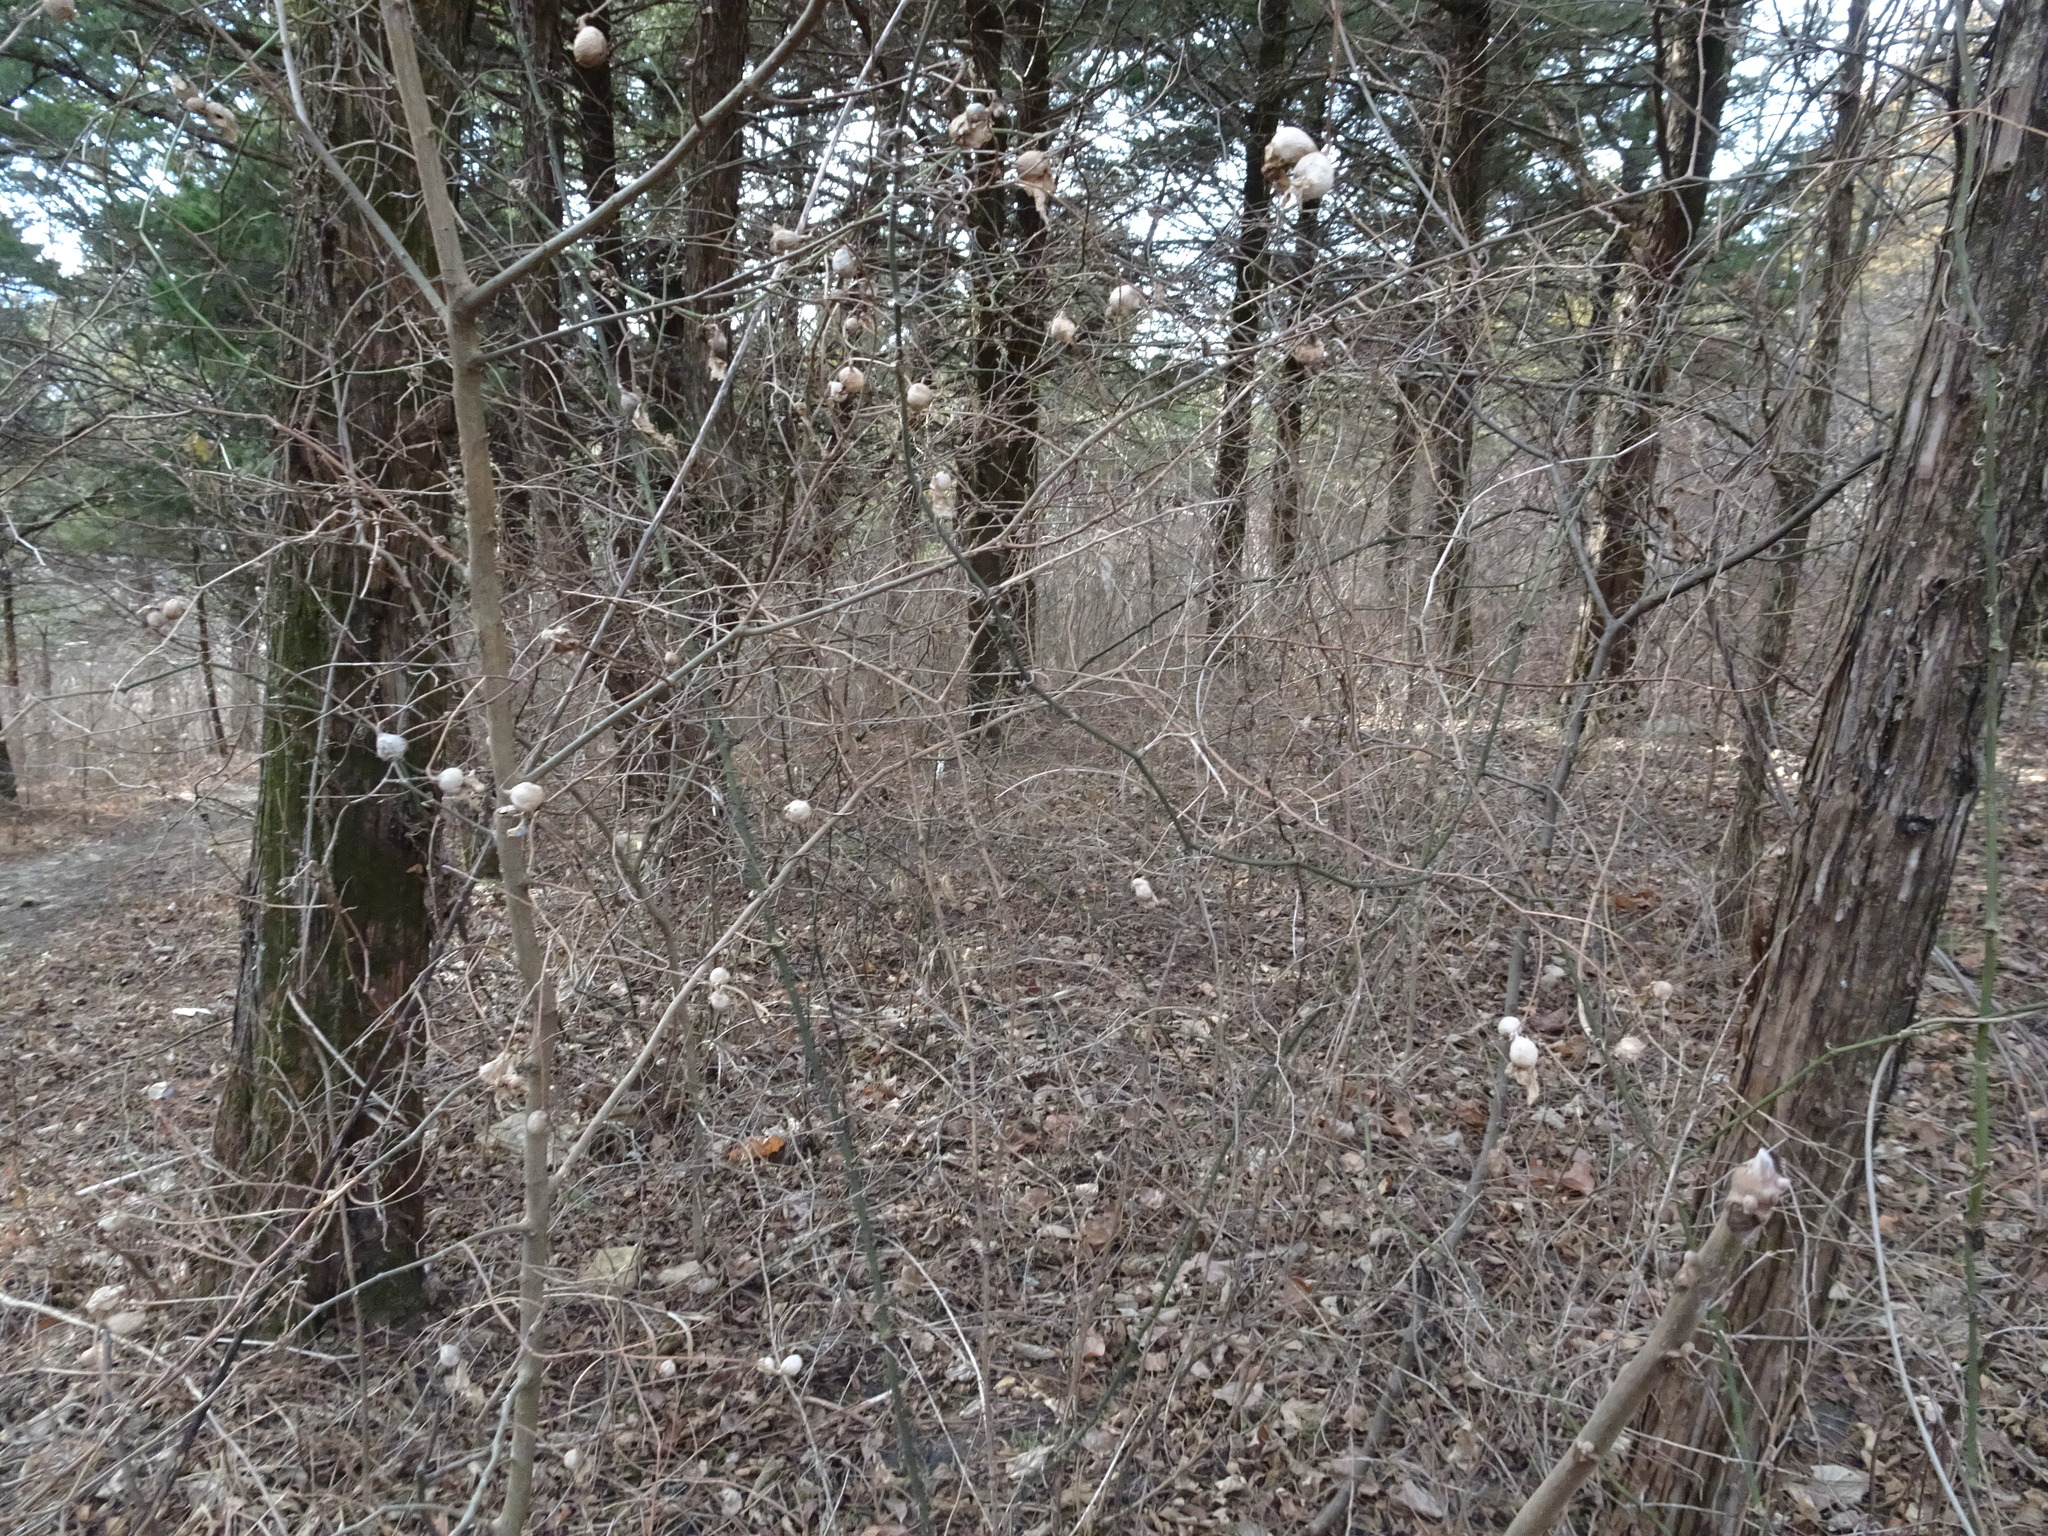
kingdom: Animalia
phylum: Arthropoda
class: Insecta
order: Hemiptera
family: Aphalaridae
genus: Pachypsylla
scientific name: Pachypsylla venusta
